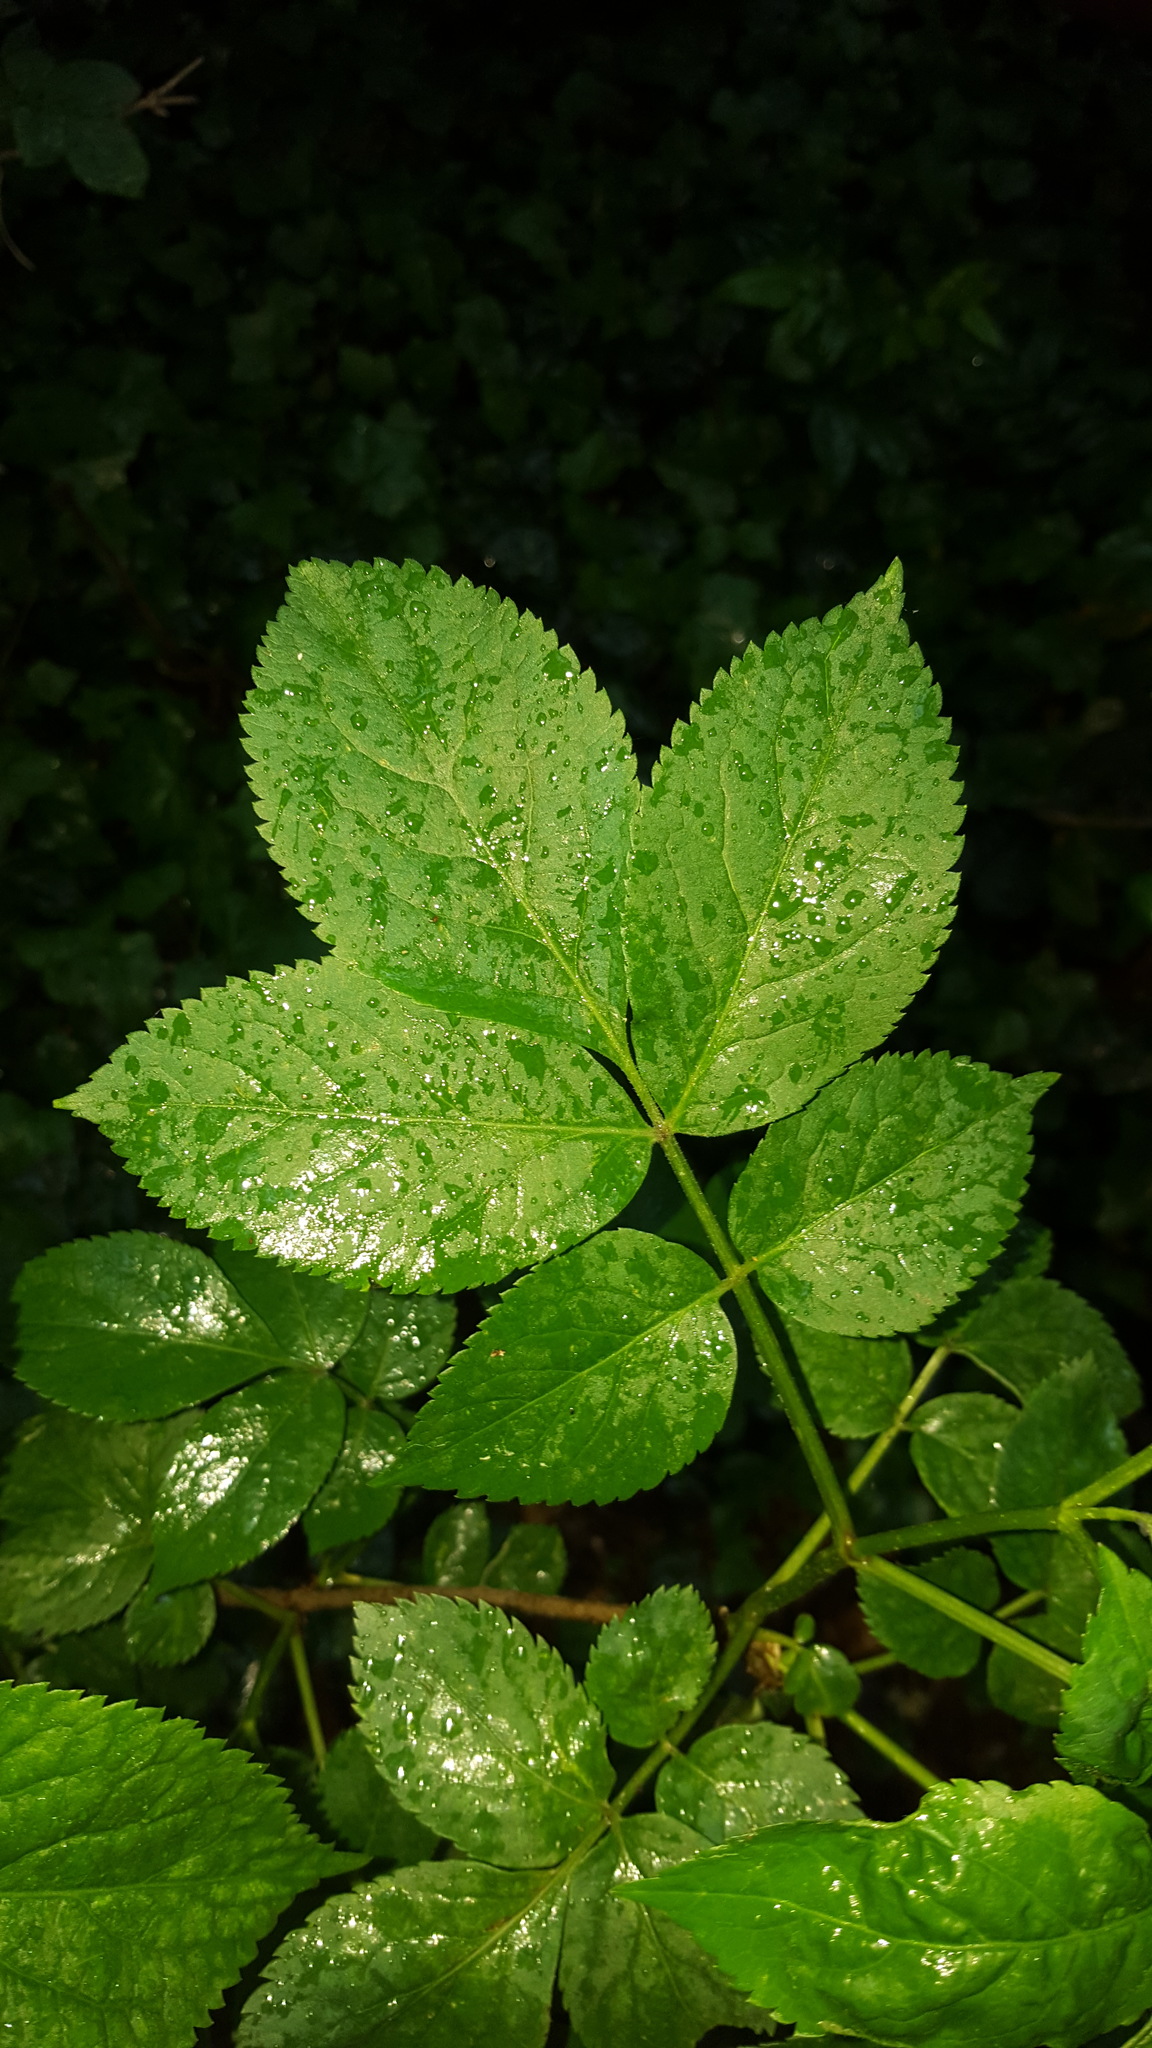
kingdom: Plantae
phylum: Tracheophyta
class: Magnoliopsida
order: Dipsacales
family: Viburnaceae
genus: Sambucus
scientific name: Sambucus nigra
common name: Elder
